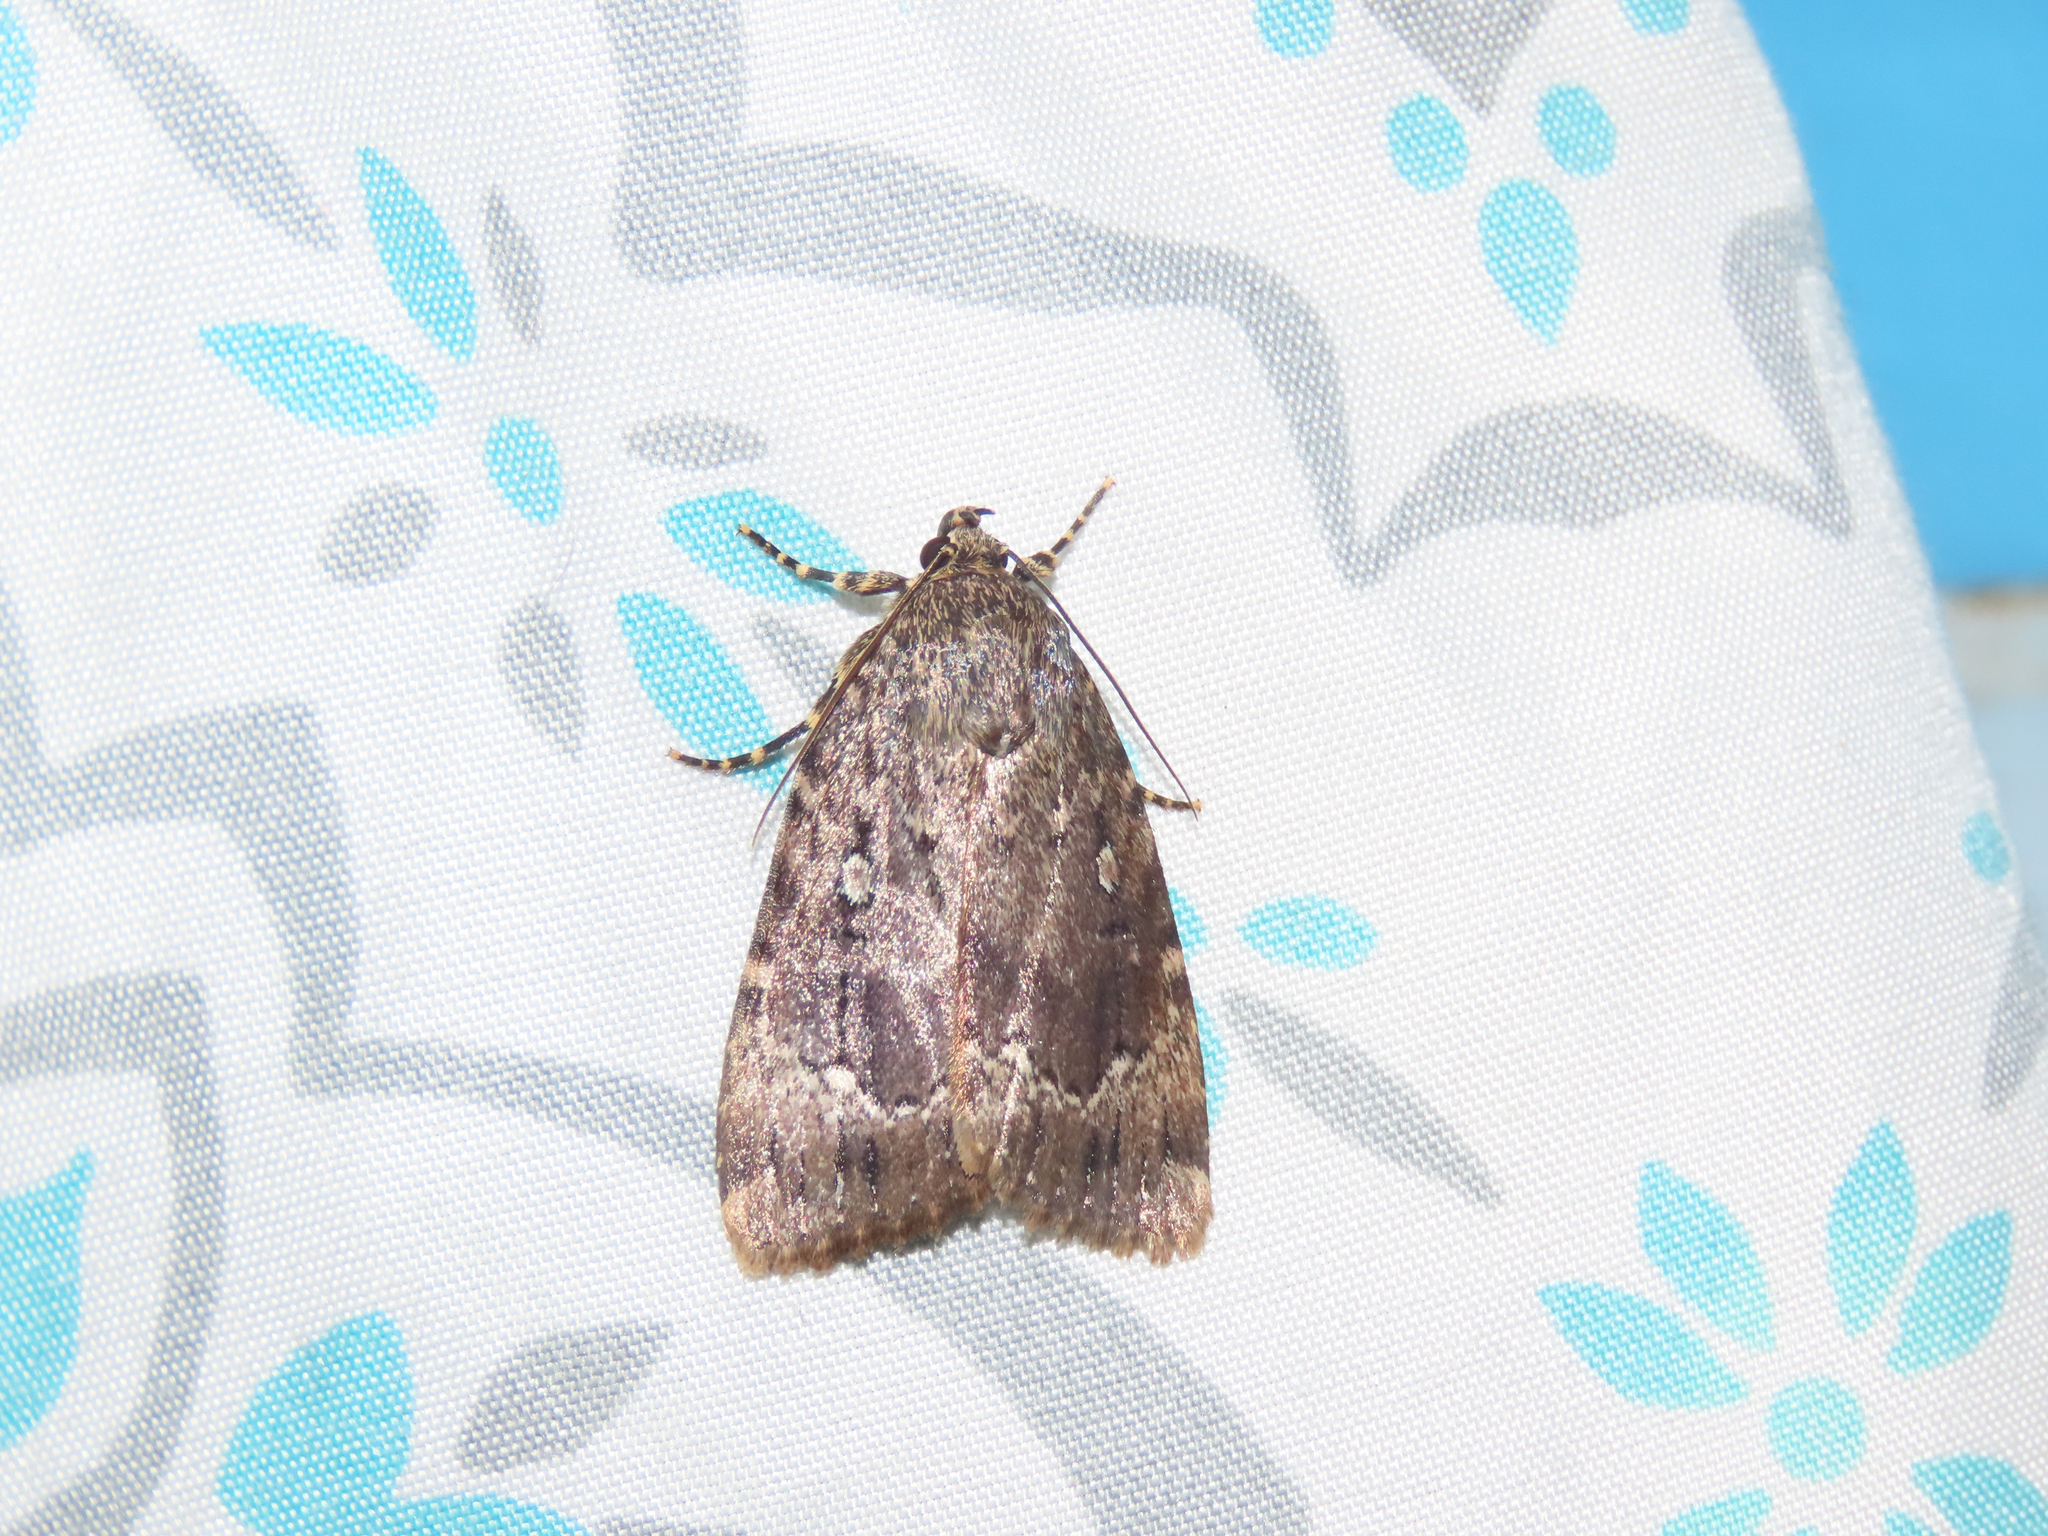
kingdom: Animalia
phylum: Arthropoda
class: Insecta
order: Lepidoptera
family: Noctuidae
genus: Amphipyra
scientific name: Amphipyra pyramidoides
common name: American copper underwing
